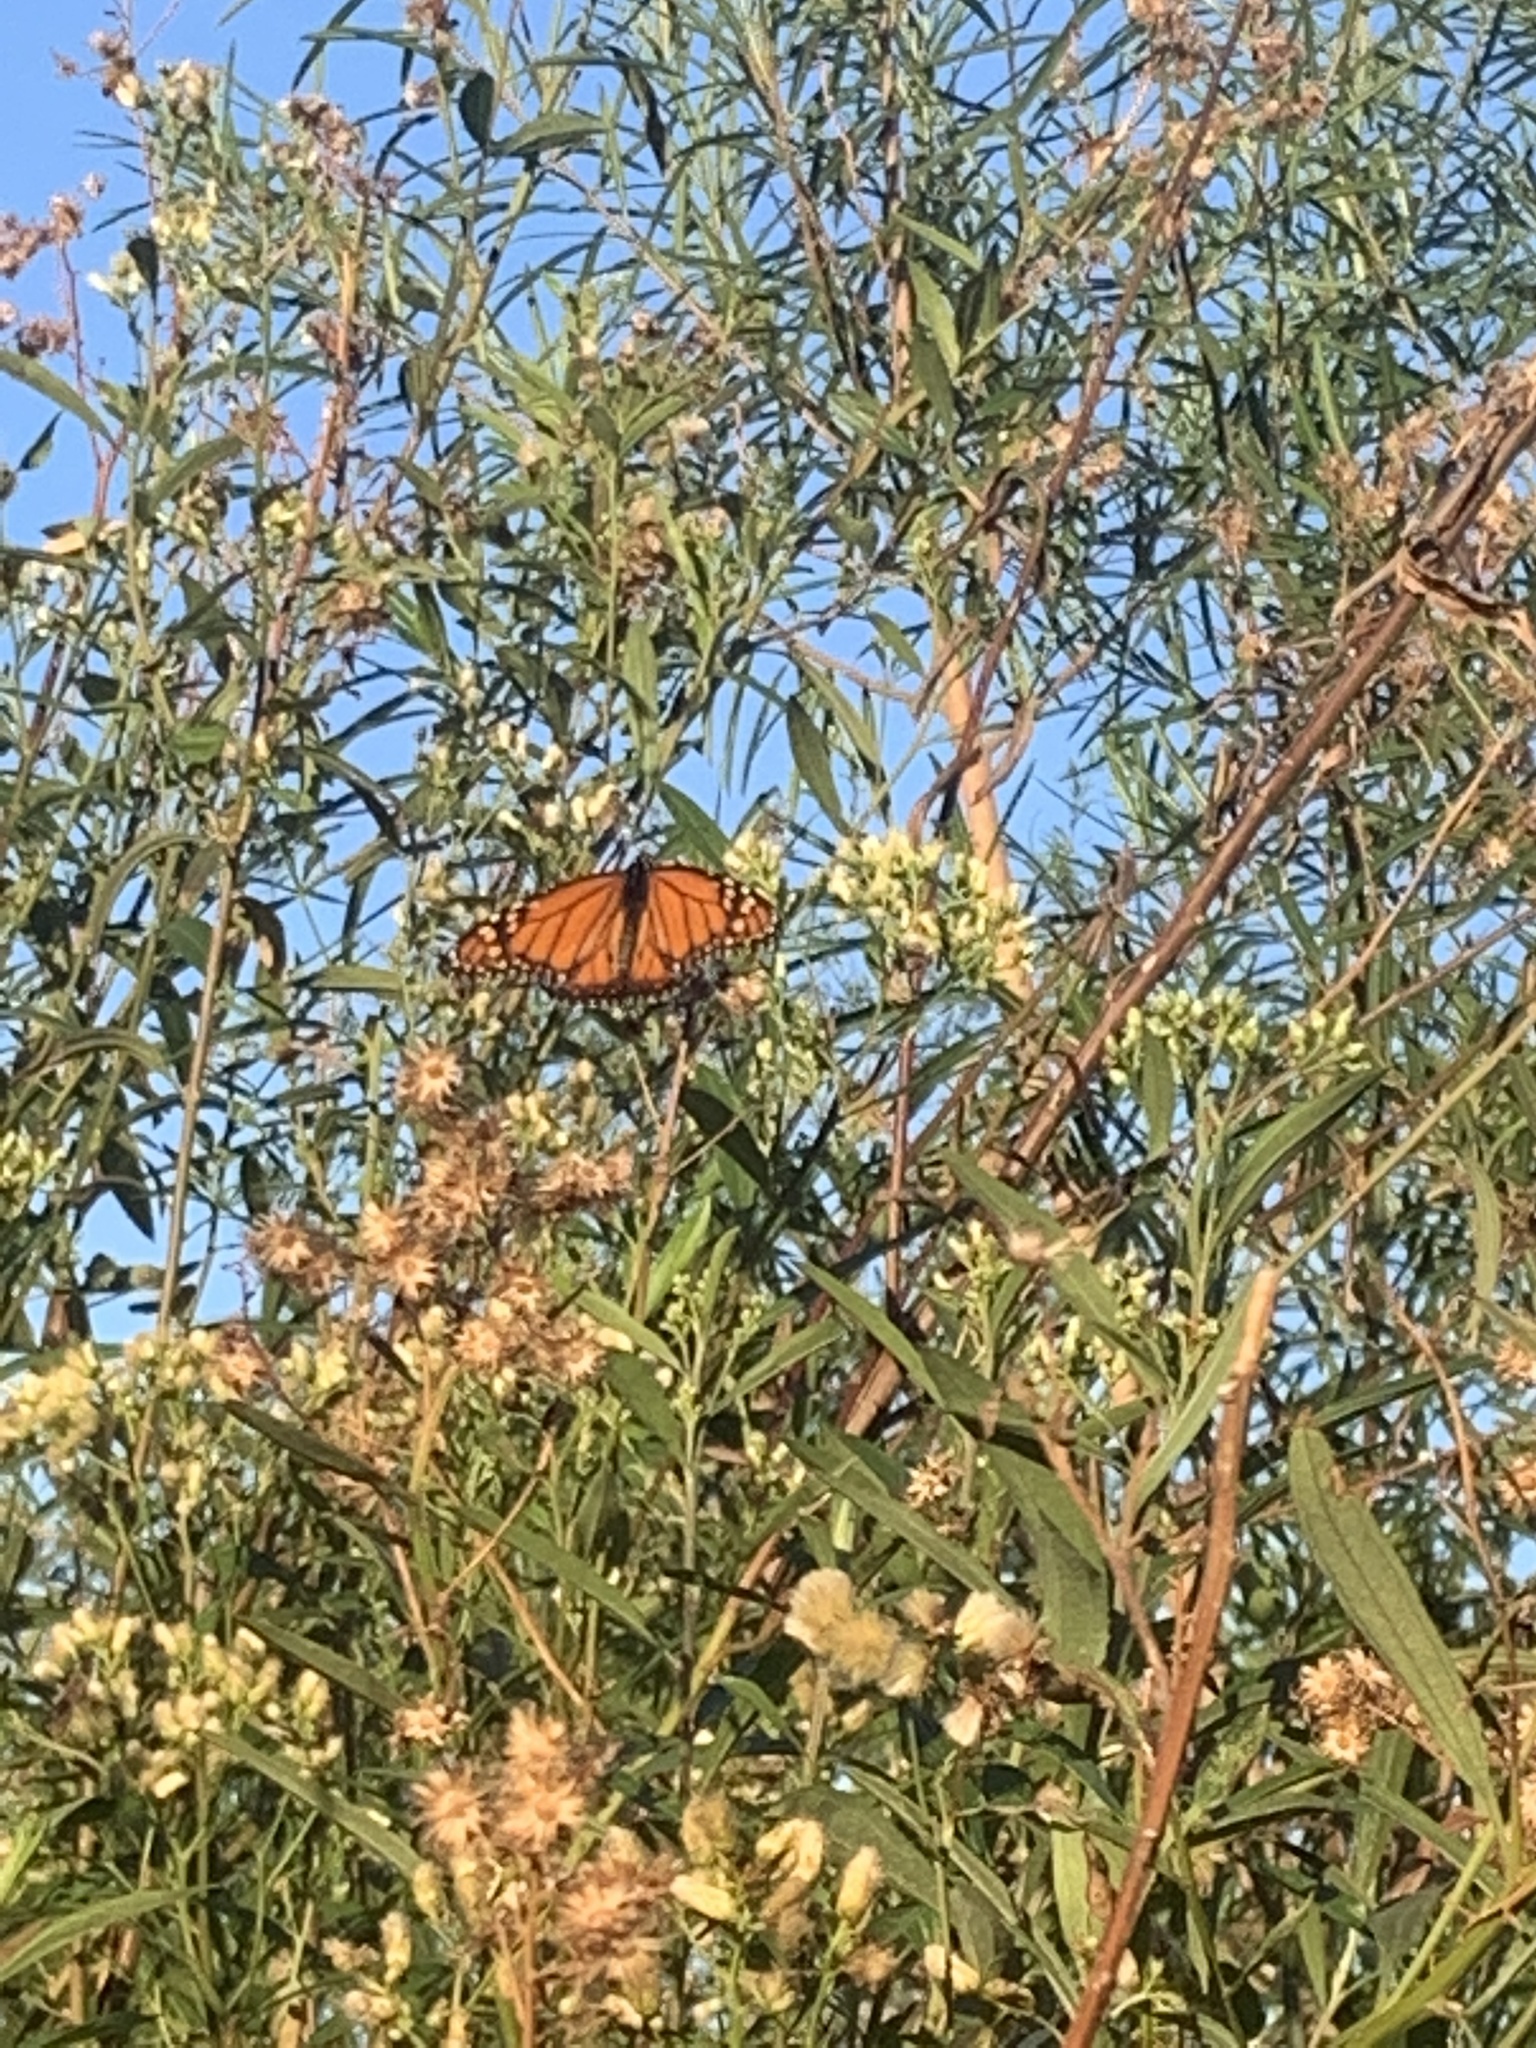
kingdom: Animalia
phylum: Arthropoda
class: Insecta
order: Lepidoptera
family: Nymphalidae
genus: Danaus
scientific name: Danaus erippus
